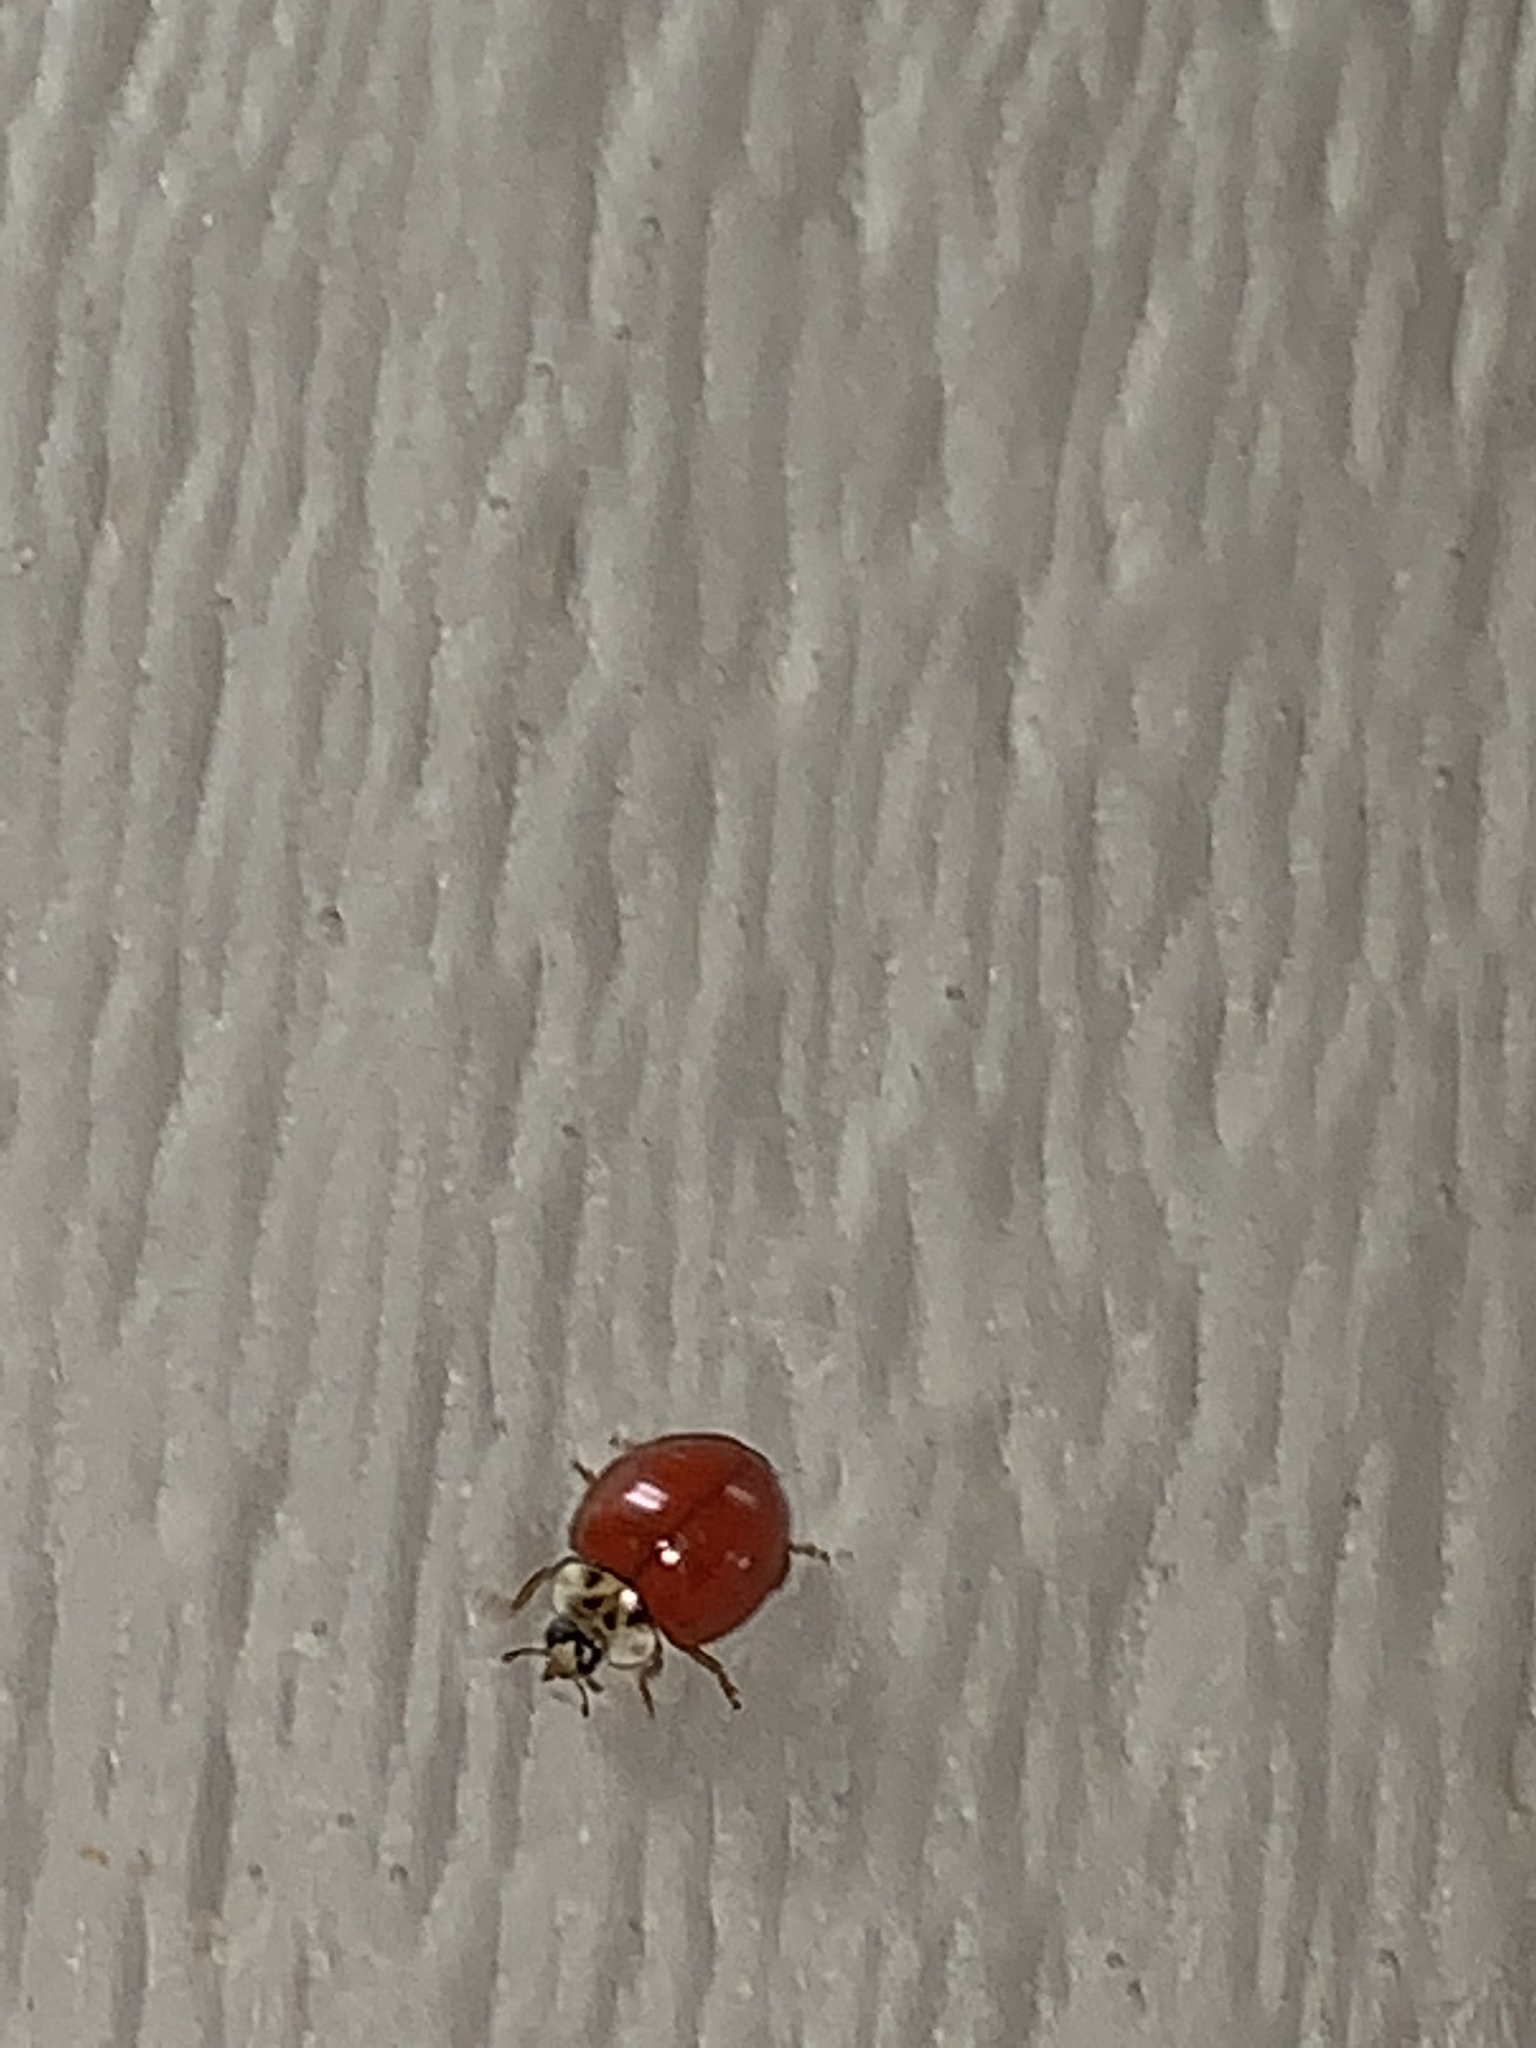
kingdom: Animalia
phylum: Arthropoda
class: Insecta
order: Coleoptera
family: Coccinellidae
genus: Harmonia
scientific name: Harmonia axyridis
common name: Harlequin ladybird
